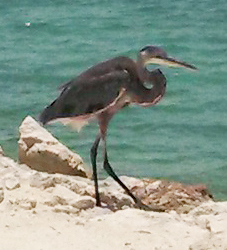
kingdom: Animalia
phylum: Chordata
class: Aves
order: Pelecaniformes
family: Ardeidae
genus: Ardea
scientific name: Ardea herodias
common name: Great blue heron
